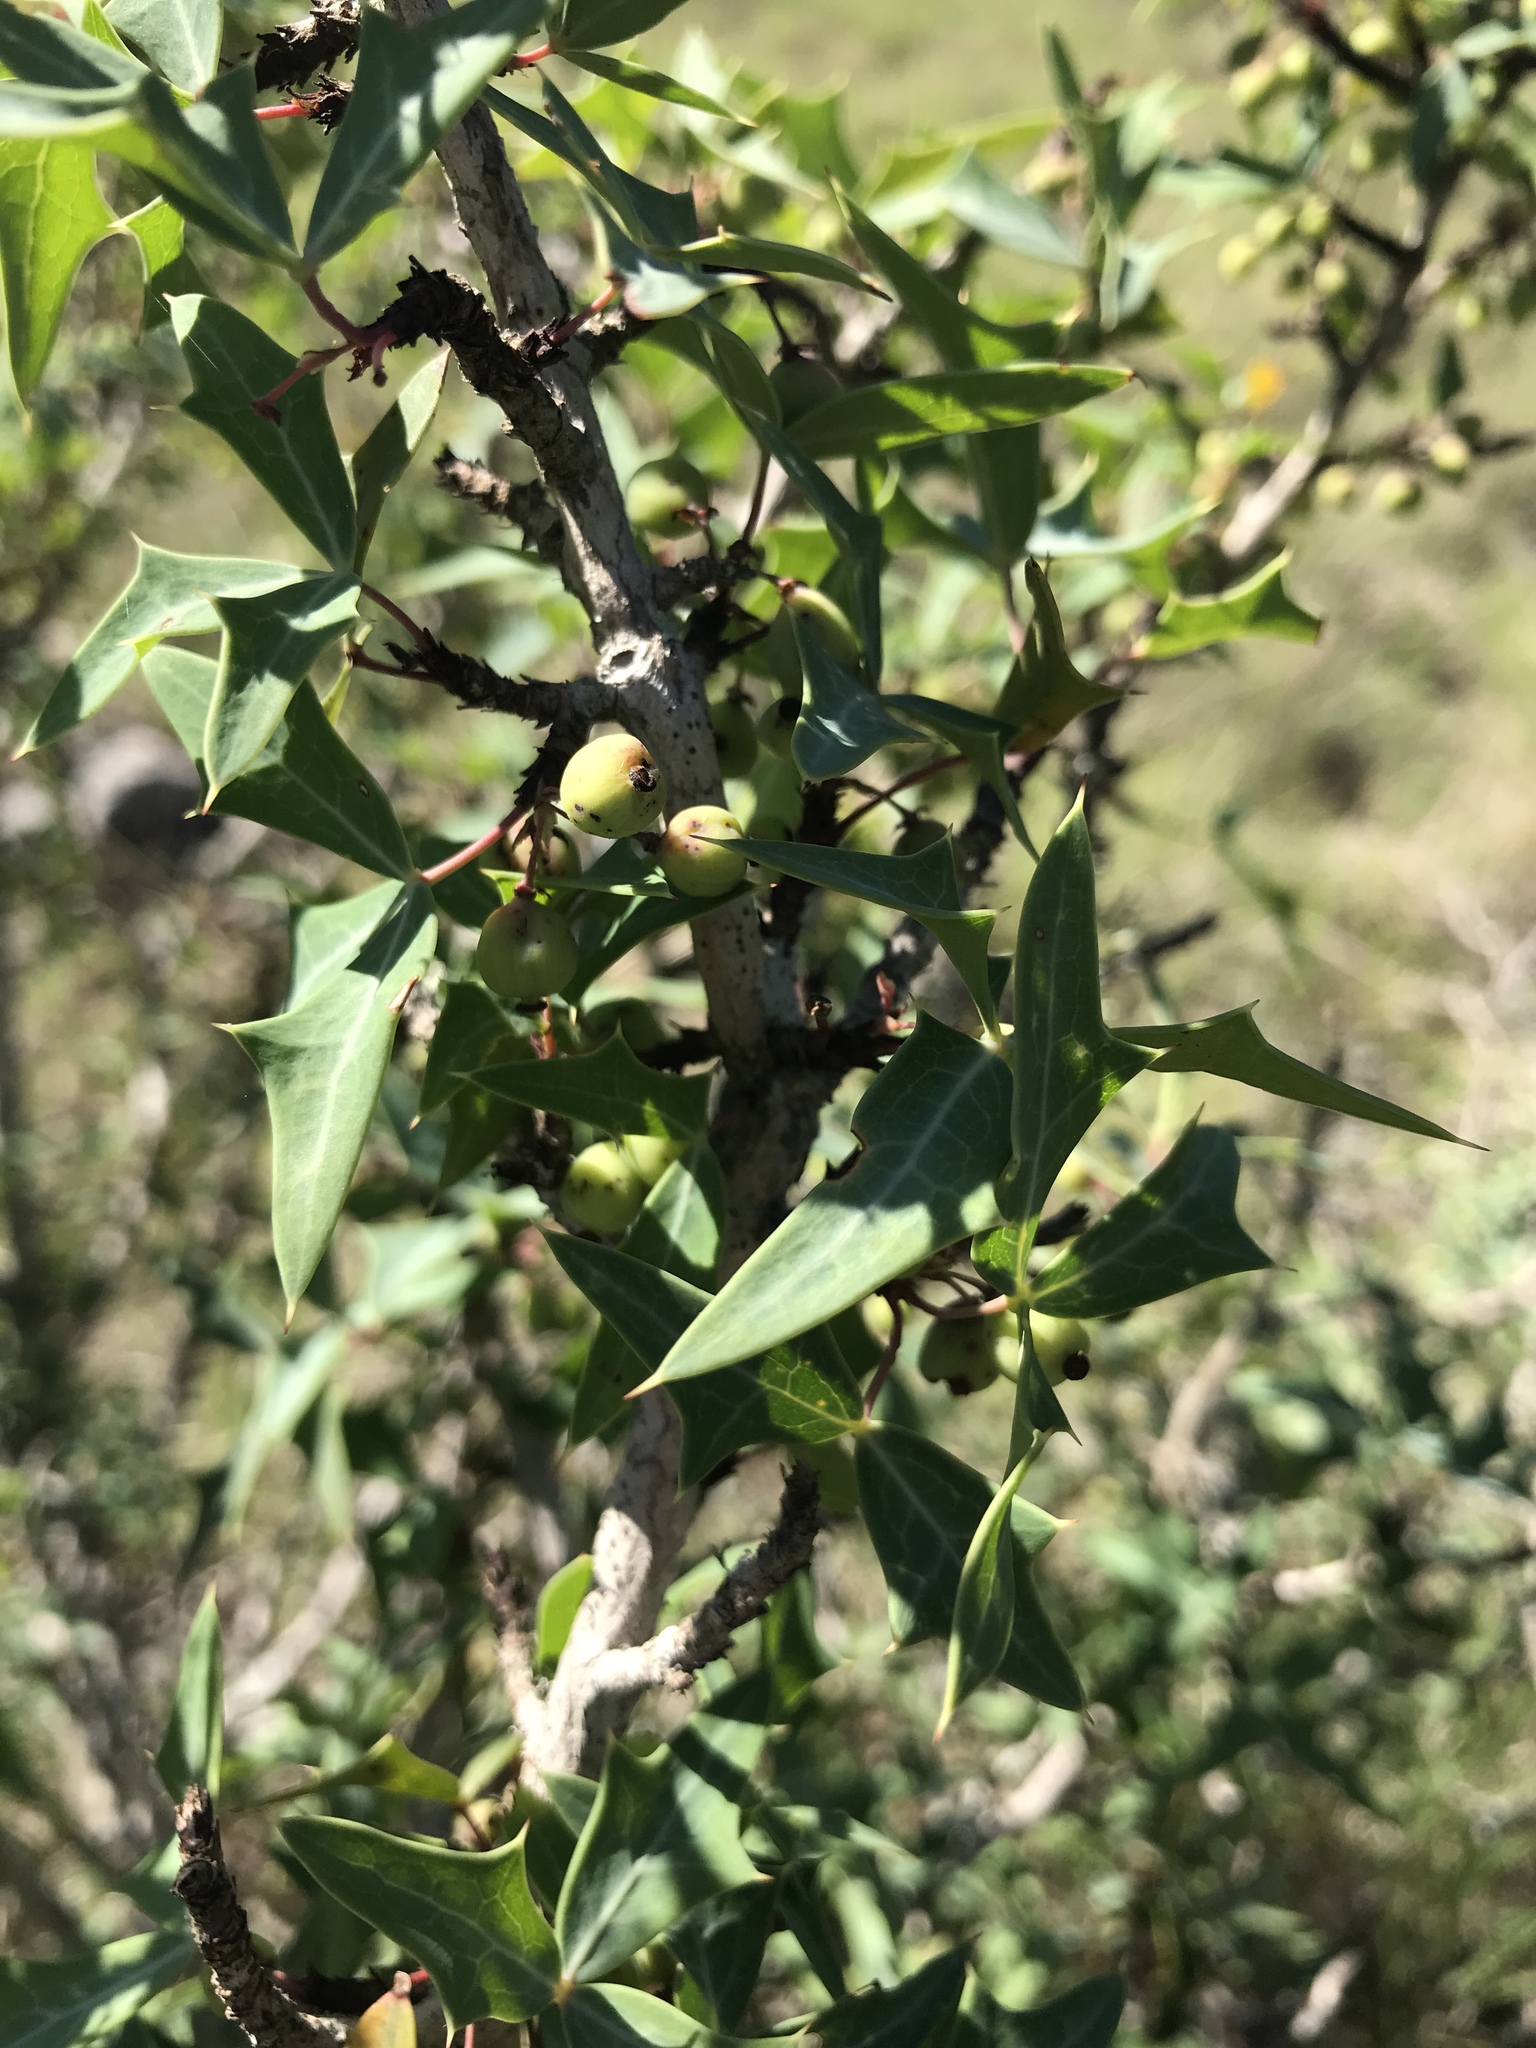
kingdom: Plantae
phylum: Tracheophyta
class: Magnoliopsida
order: Ranunculales
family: Berberidaceae
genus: Alloberberis
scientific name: Alloberberis trifoliolata
